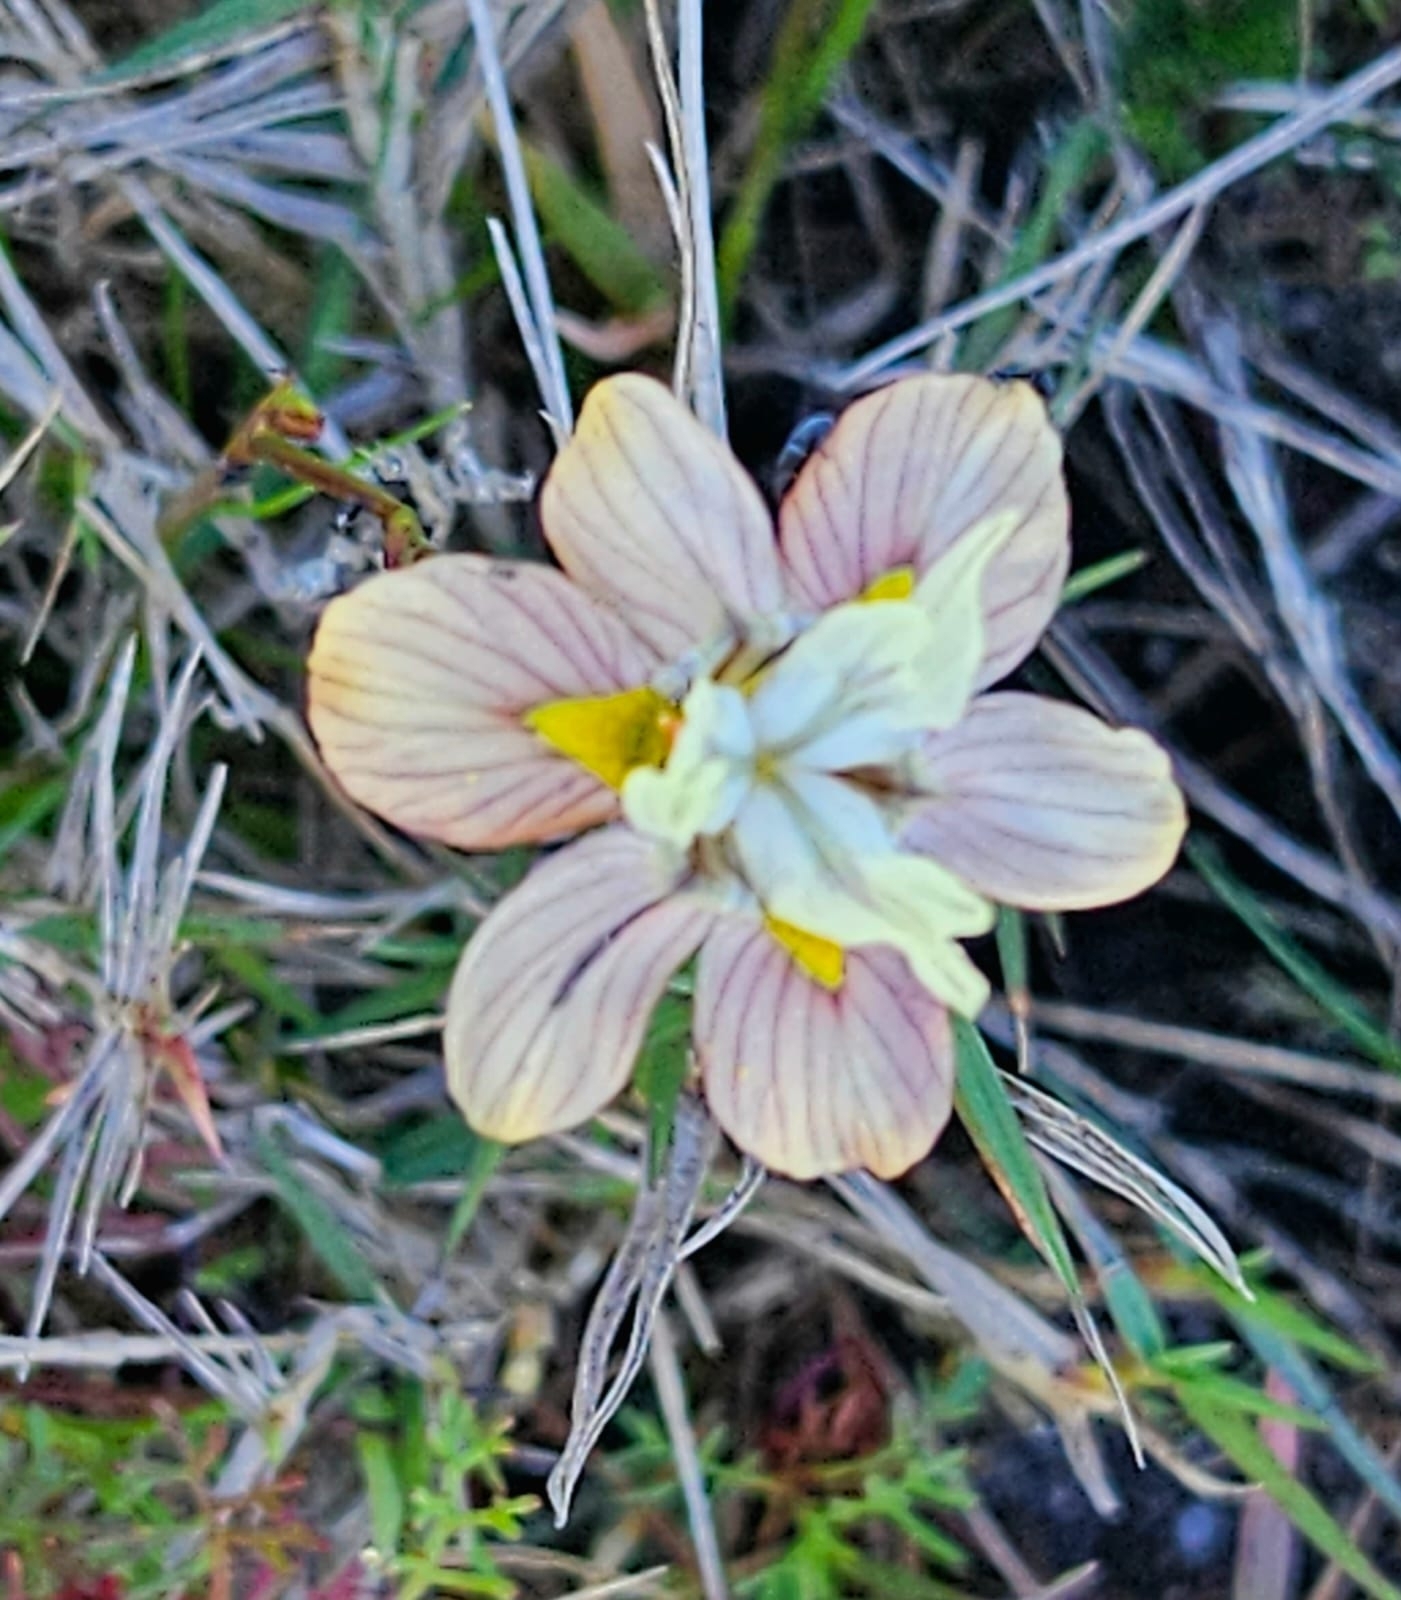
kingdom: Plantae
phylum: Tracheophyta
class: Liliopsida
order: Asparagales
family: Iridaceae
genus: Moraea
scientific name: Moraea gawleri
